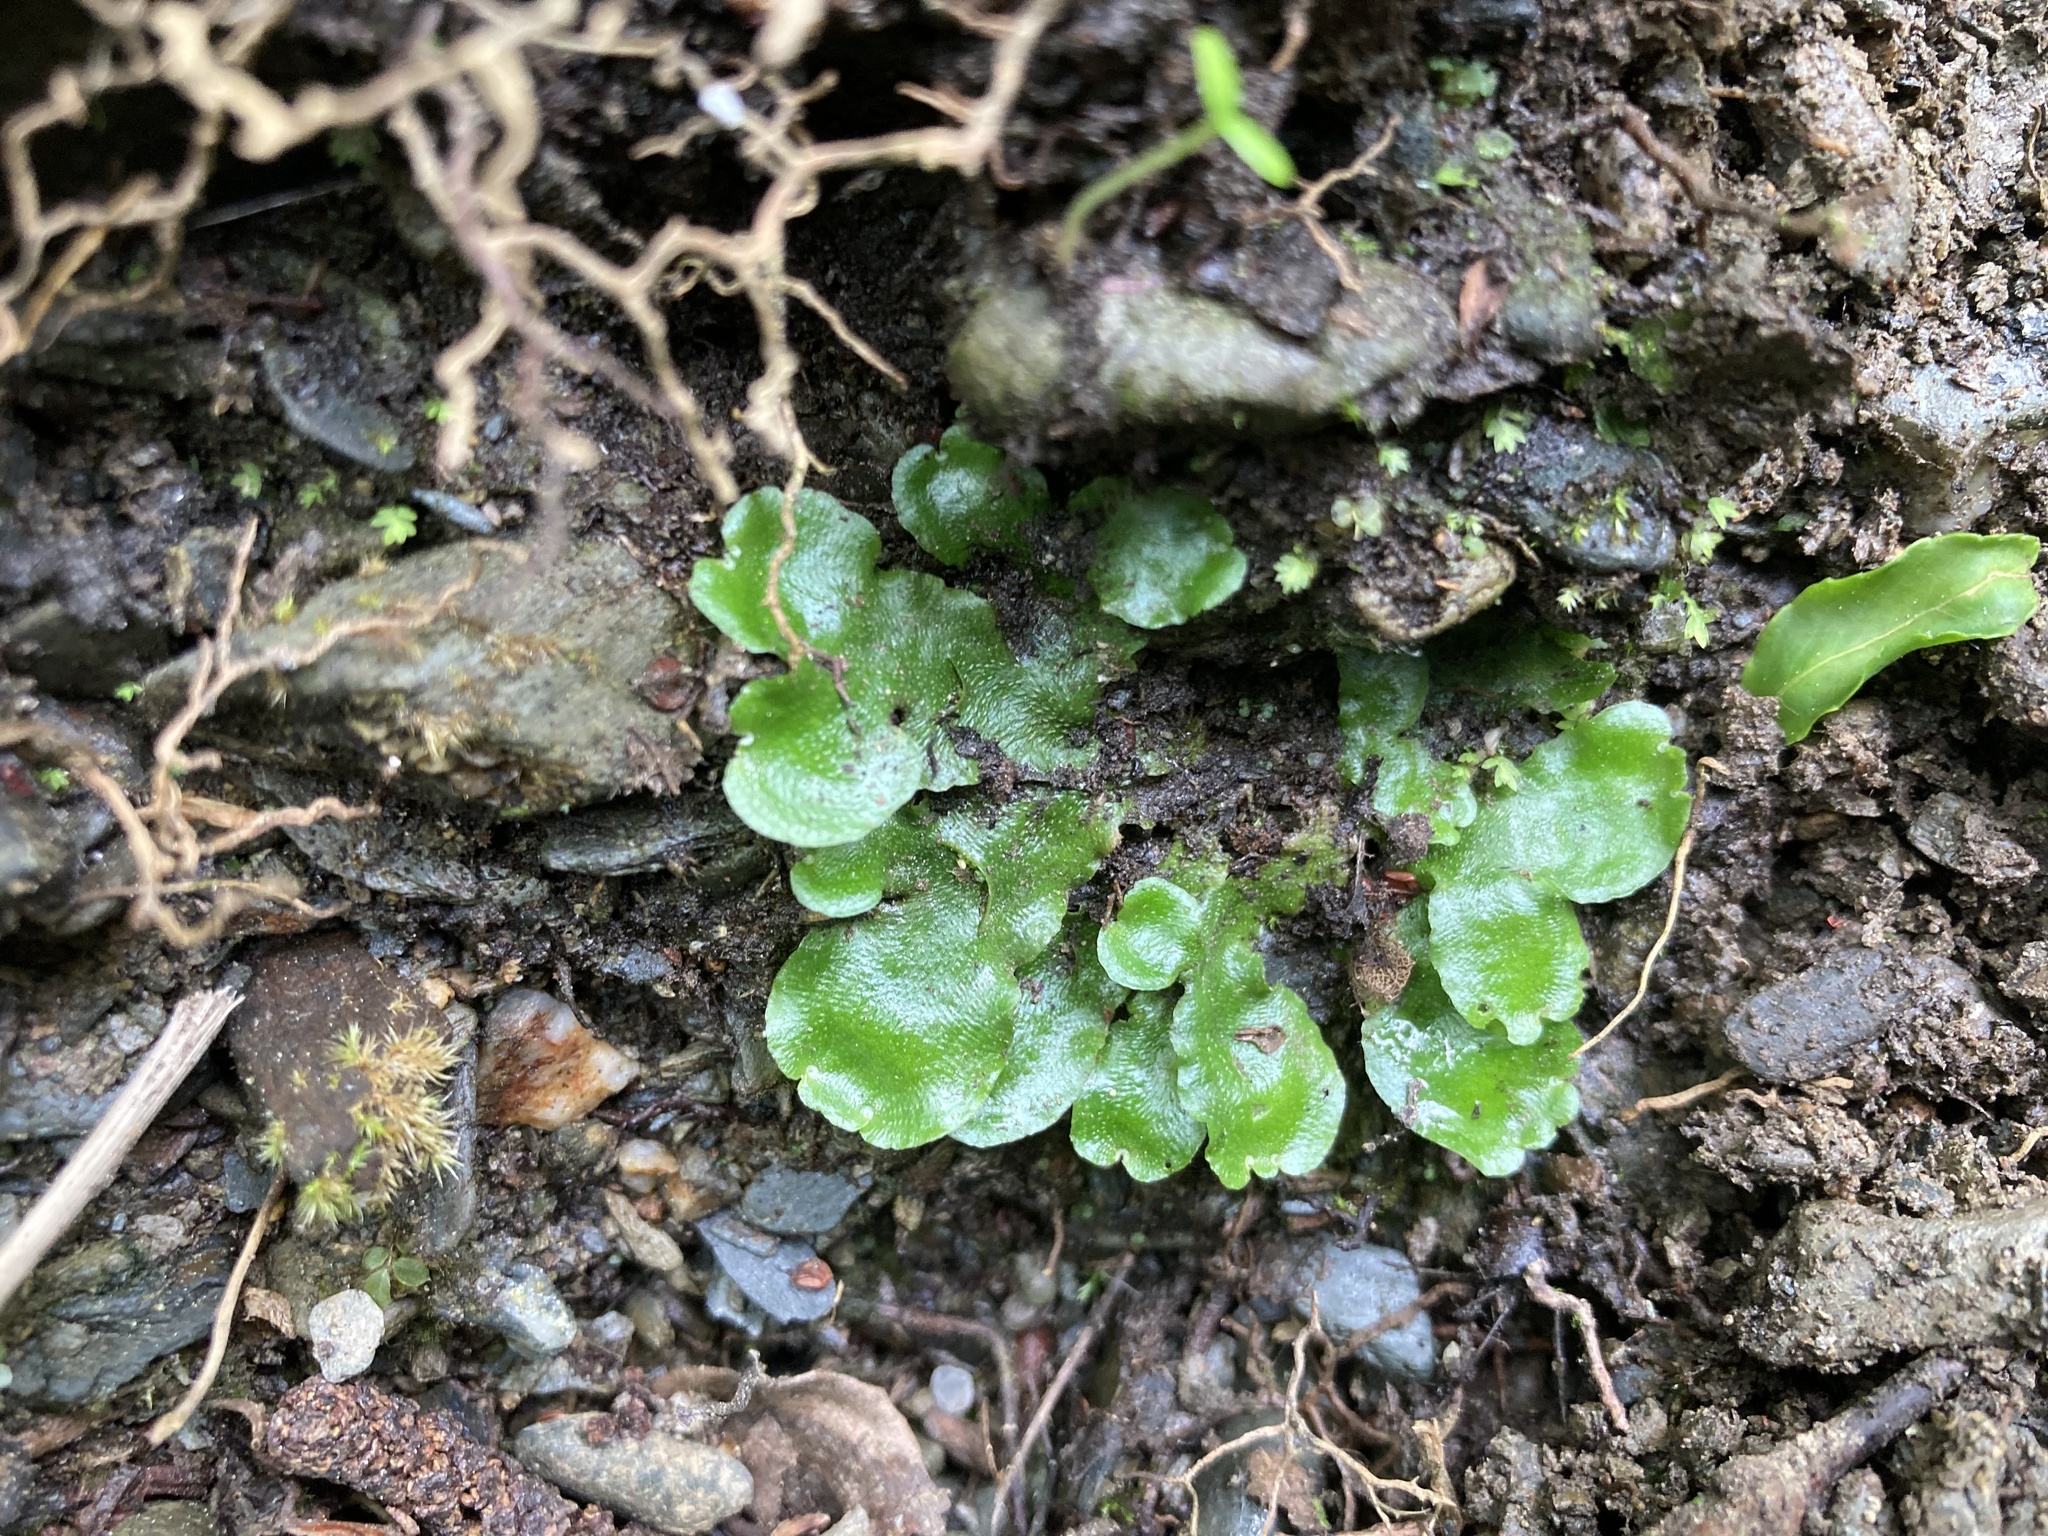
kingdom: Plantae
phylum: Marchantiophyta
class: Marchantiopsida
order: Lunulariales
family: Lunulariaceae
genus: Lunularia
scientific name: Lunularia cruciata
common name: Crescent-cup liverwort
